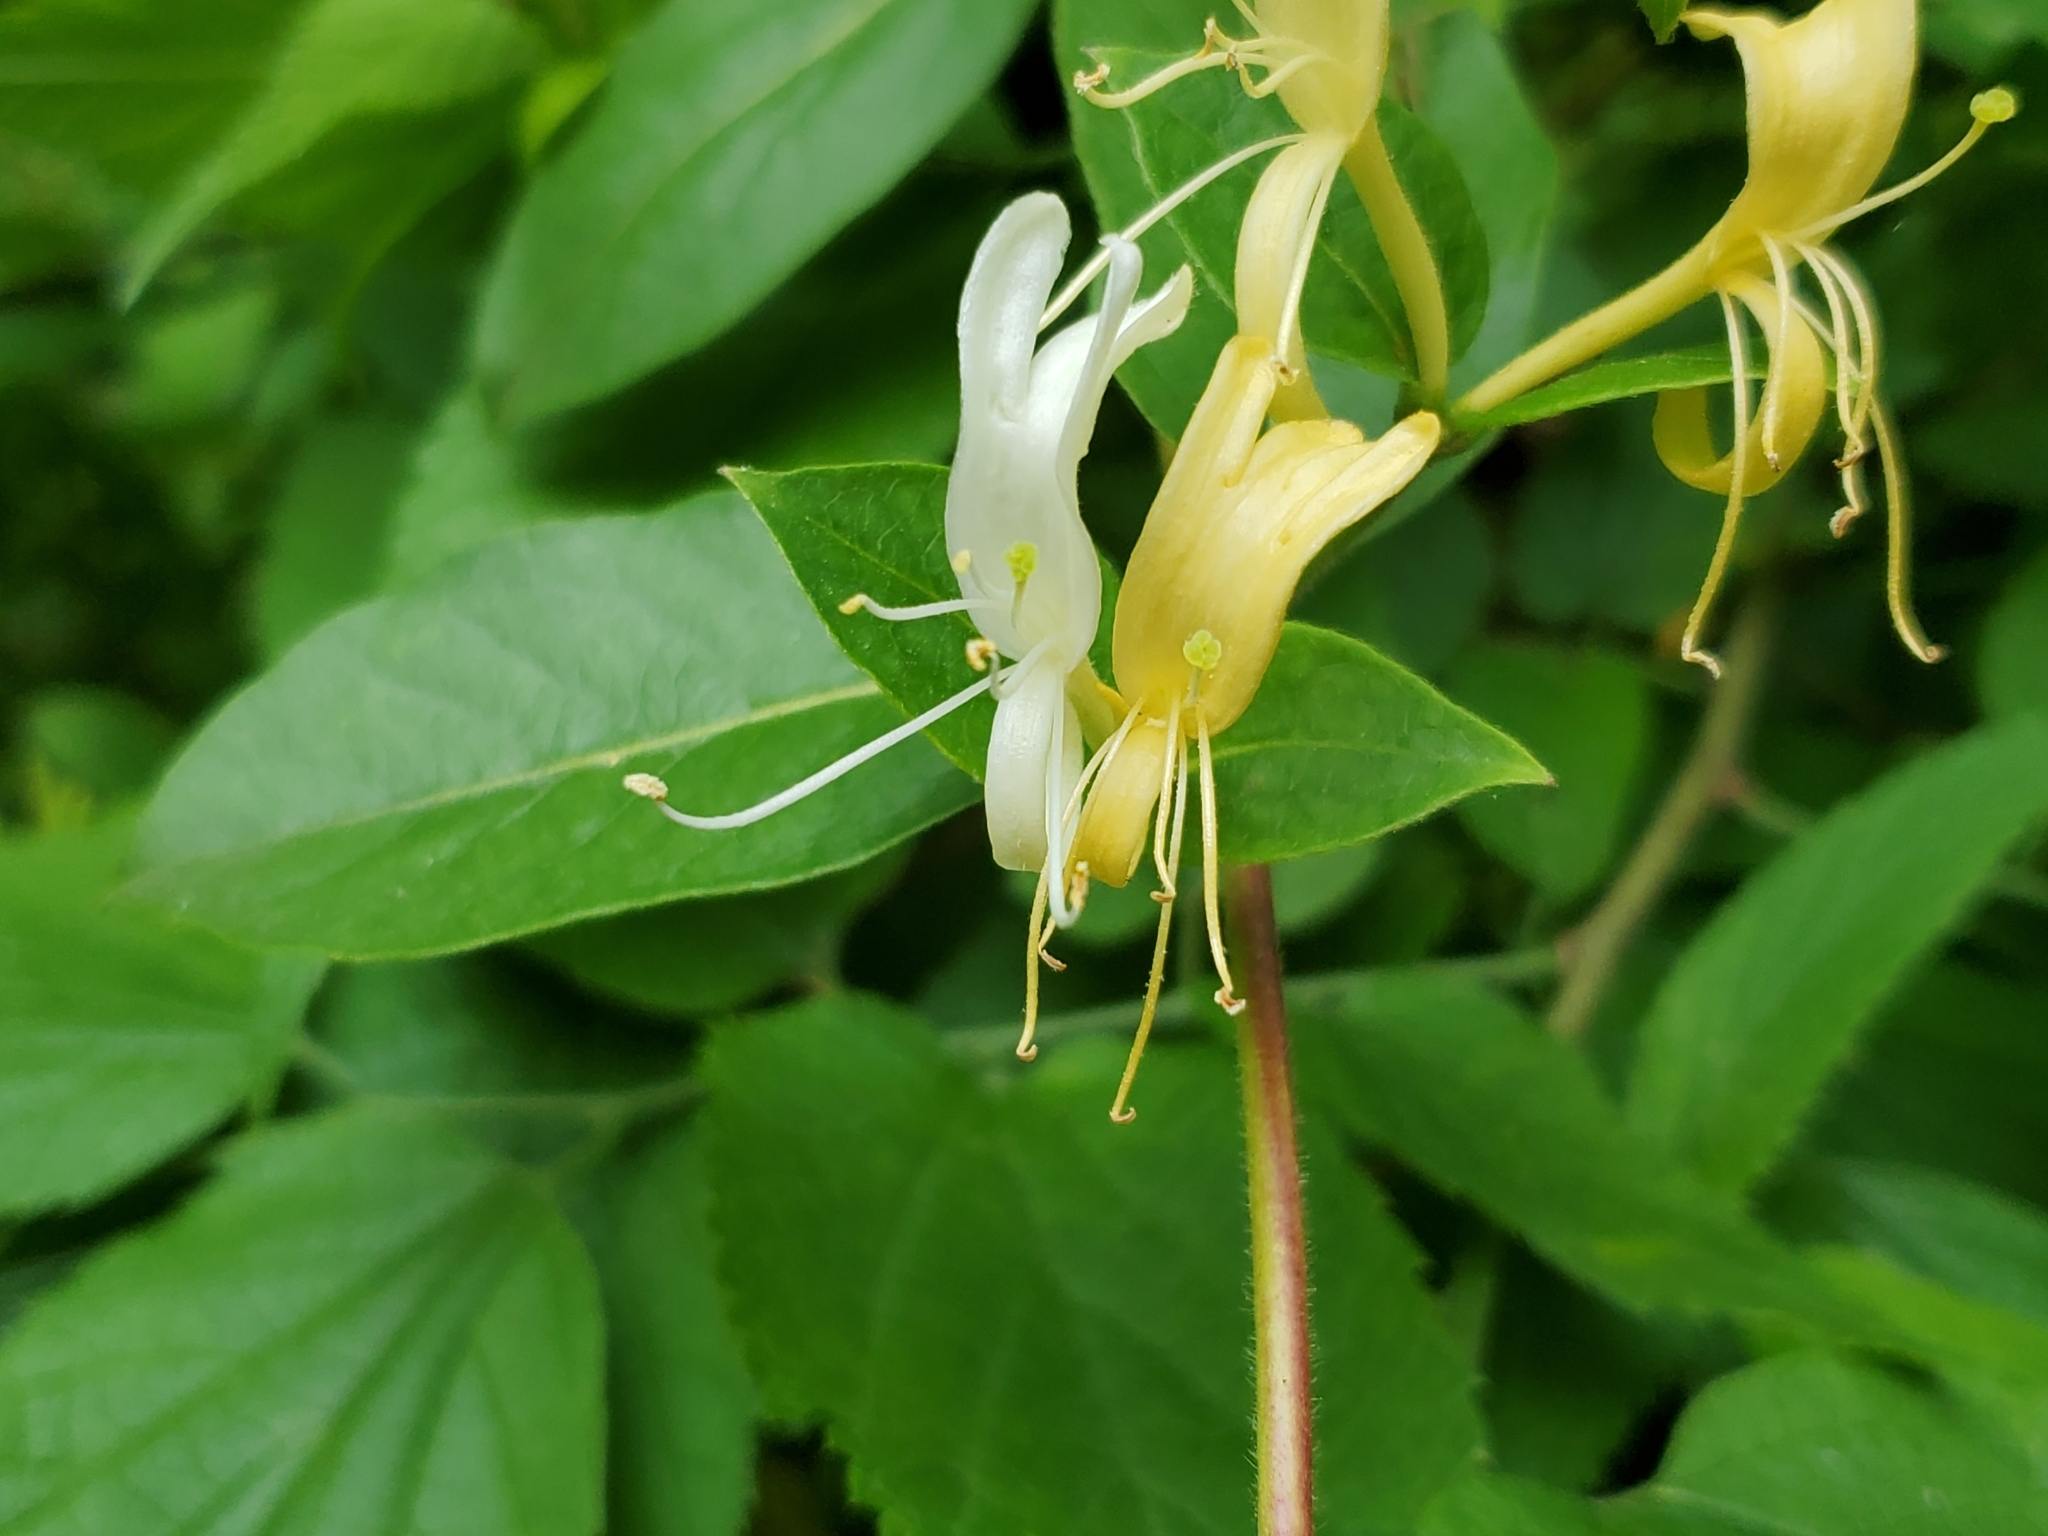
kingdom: Plantae
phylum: Tracheophyta
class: Magnoliopsida
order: Dipsacales
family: Caprifoliaceae
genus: Lonicera
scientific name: Lonicera japonica
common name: Japanese honeysuckle
